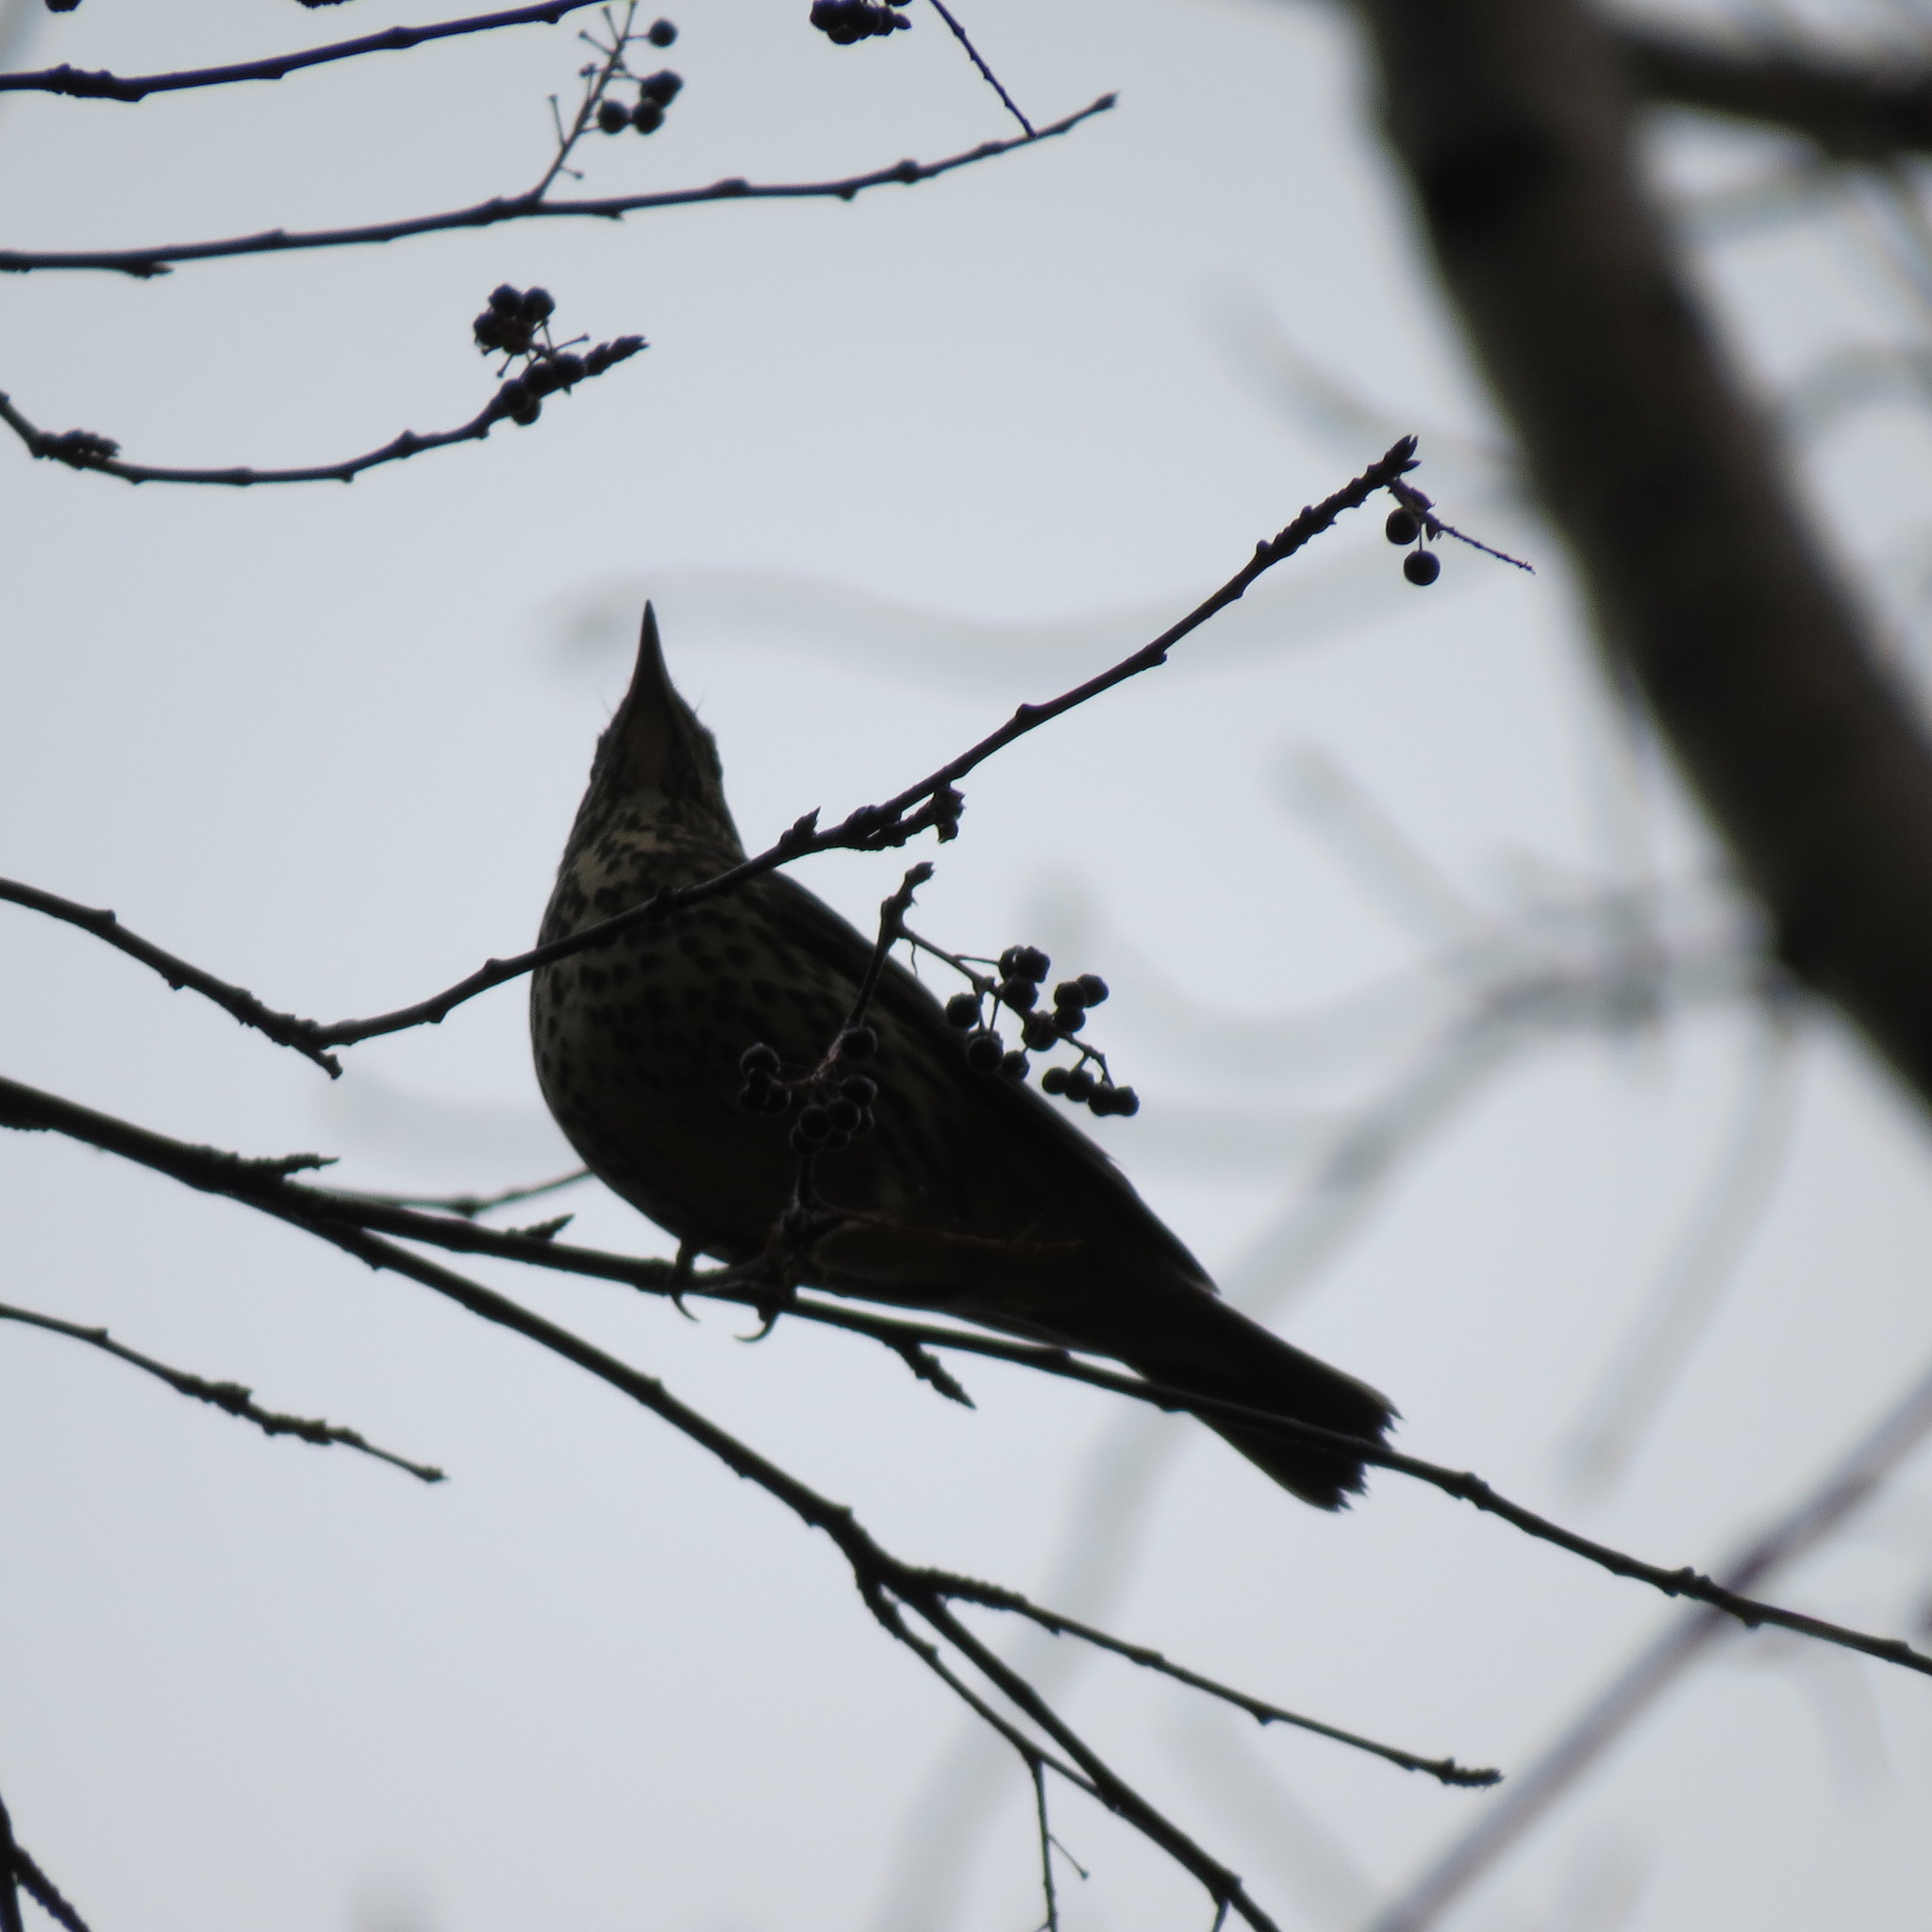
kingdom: Animalia
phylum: Chordata
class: Aves
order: Passeriformes
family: Turdidae
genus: Turdus
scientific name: Turdus philomelos
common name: Song thrush
